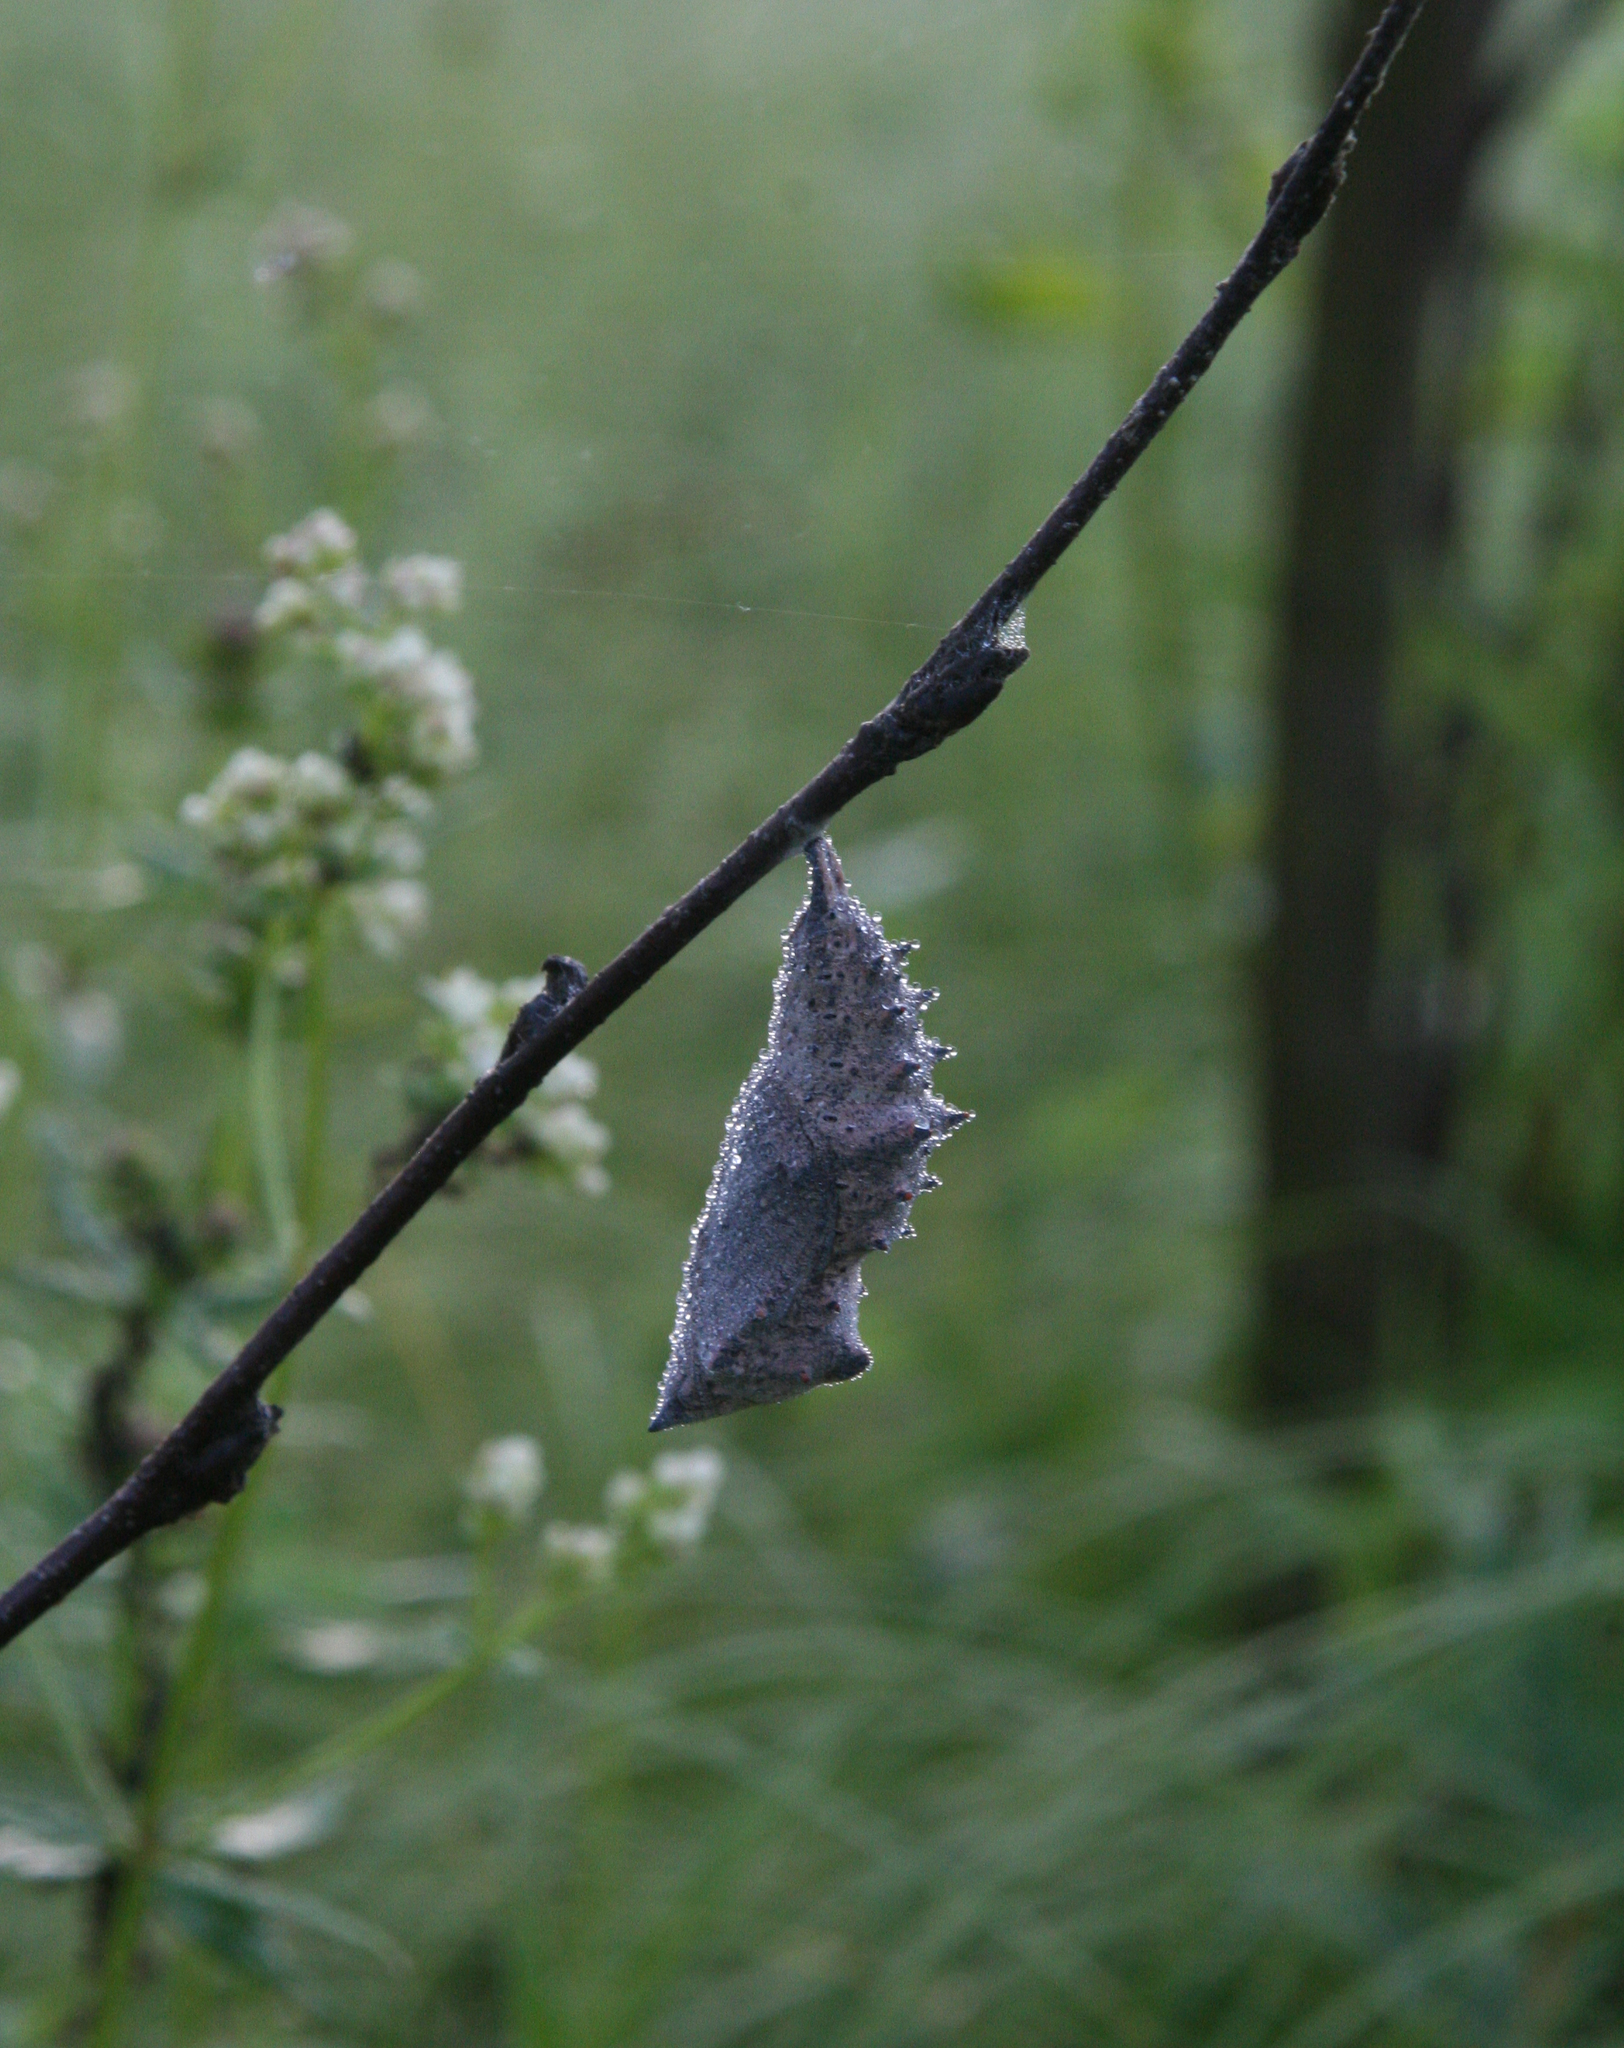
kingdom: Animalia
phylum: Arthropoda
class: Insecta
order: Lepidoptera
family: Nymphalidae
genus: Nymphalis
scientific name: Nymphalis xanthomelas
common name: Scarce tortoiseshell
